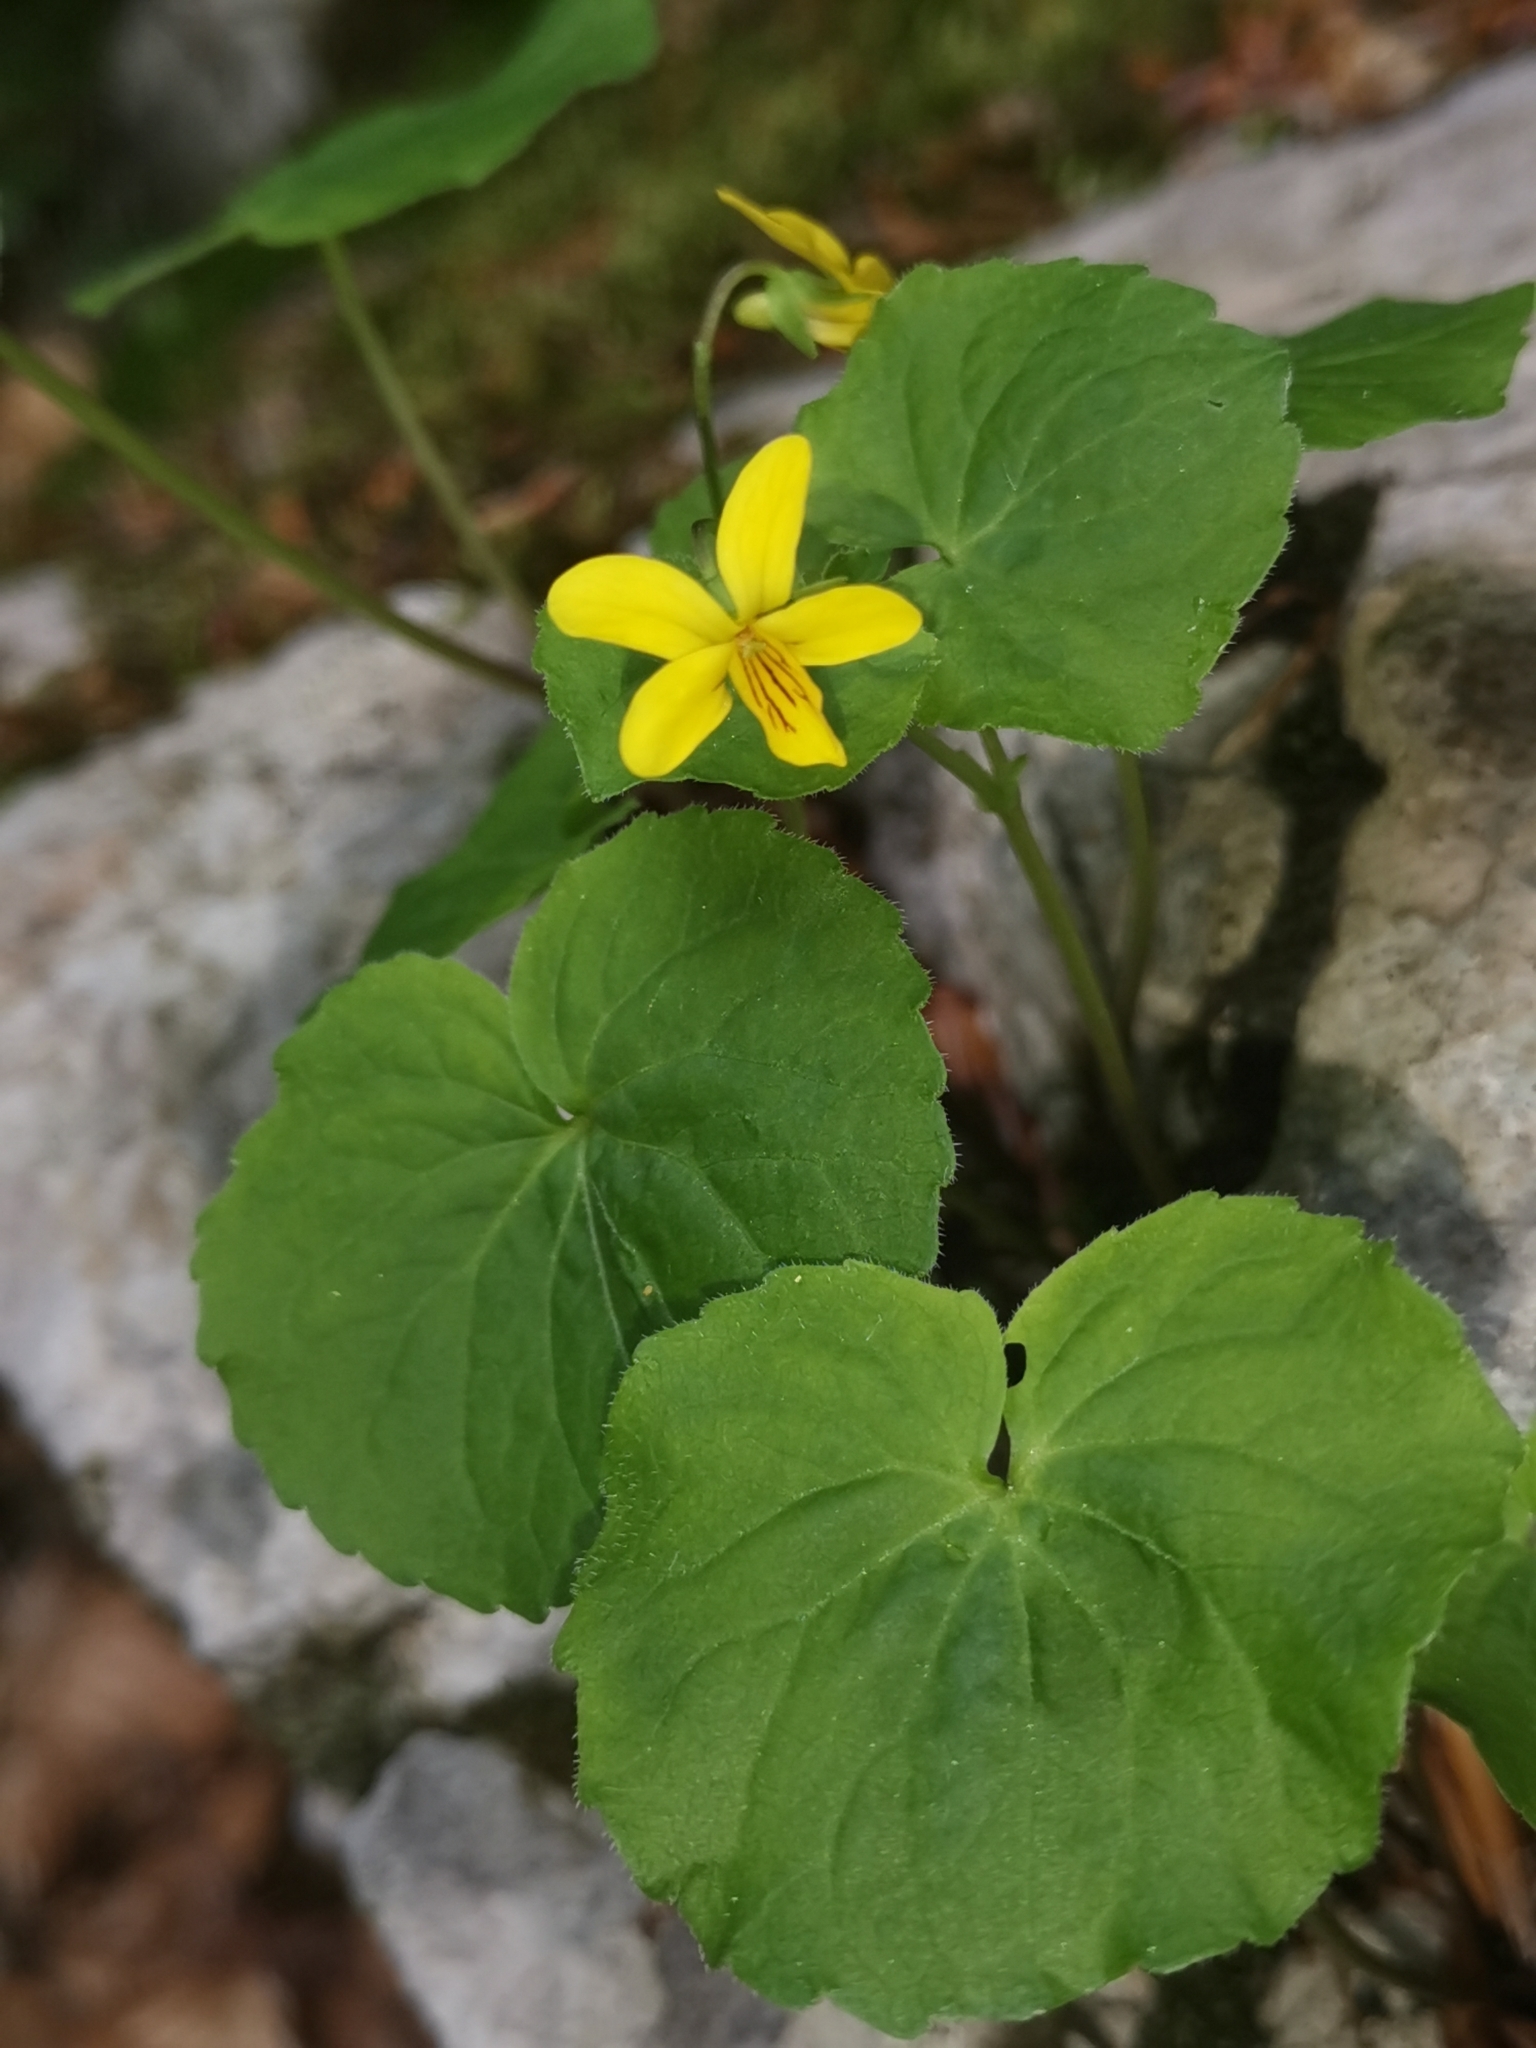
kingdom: Plantae
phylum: Tracheophyta
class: Magnoliopsida
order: Malpighiales
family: Violaceae
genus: Viola
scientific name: Viola biflora
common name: Alpine yellow violet
